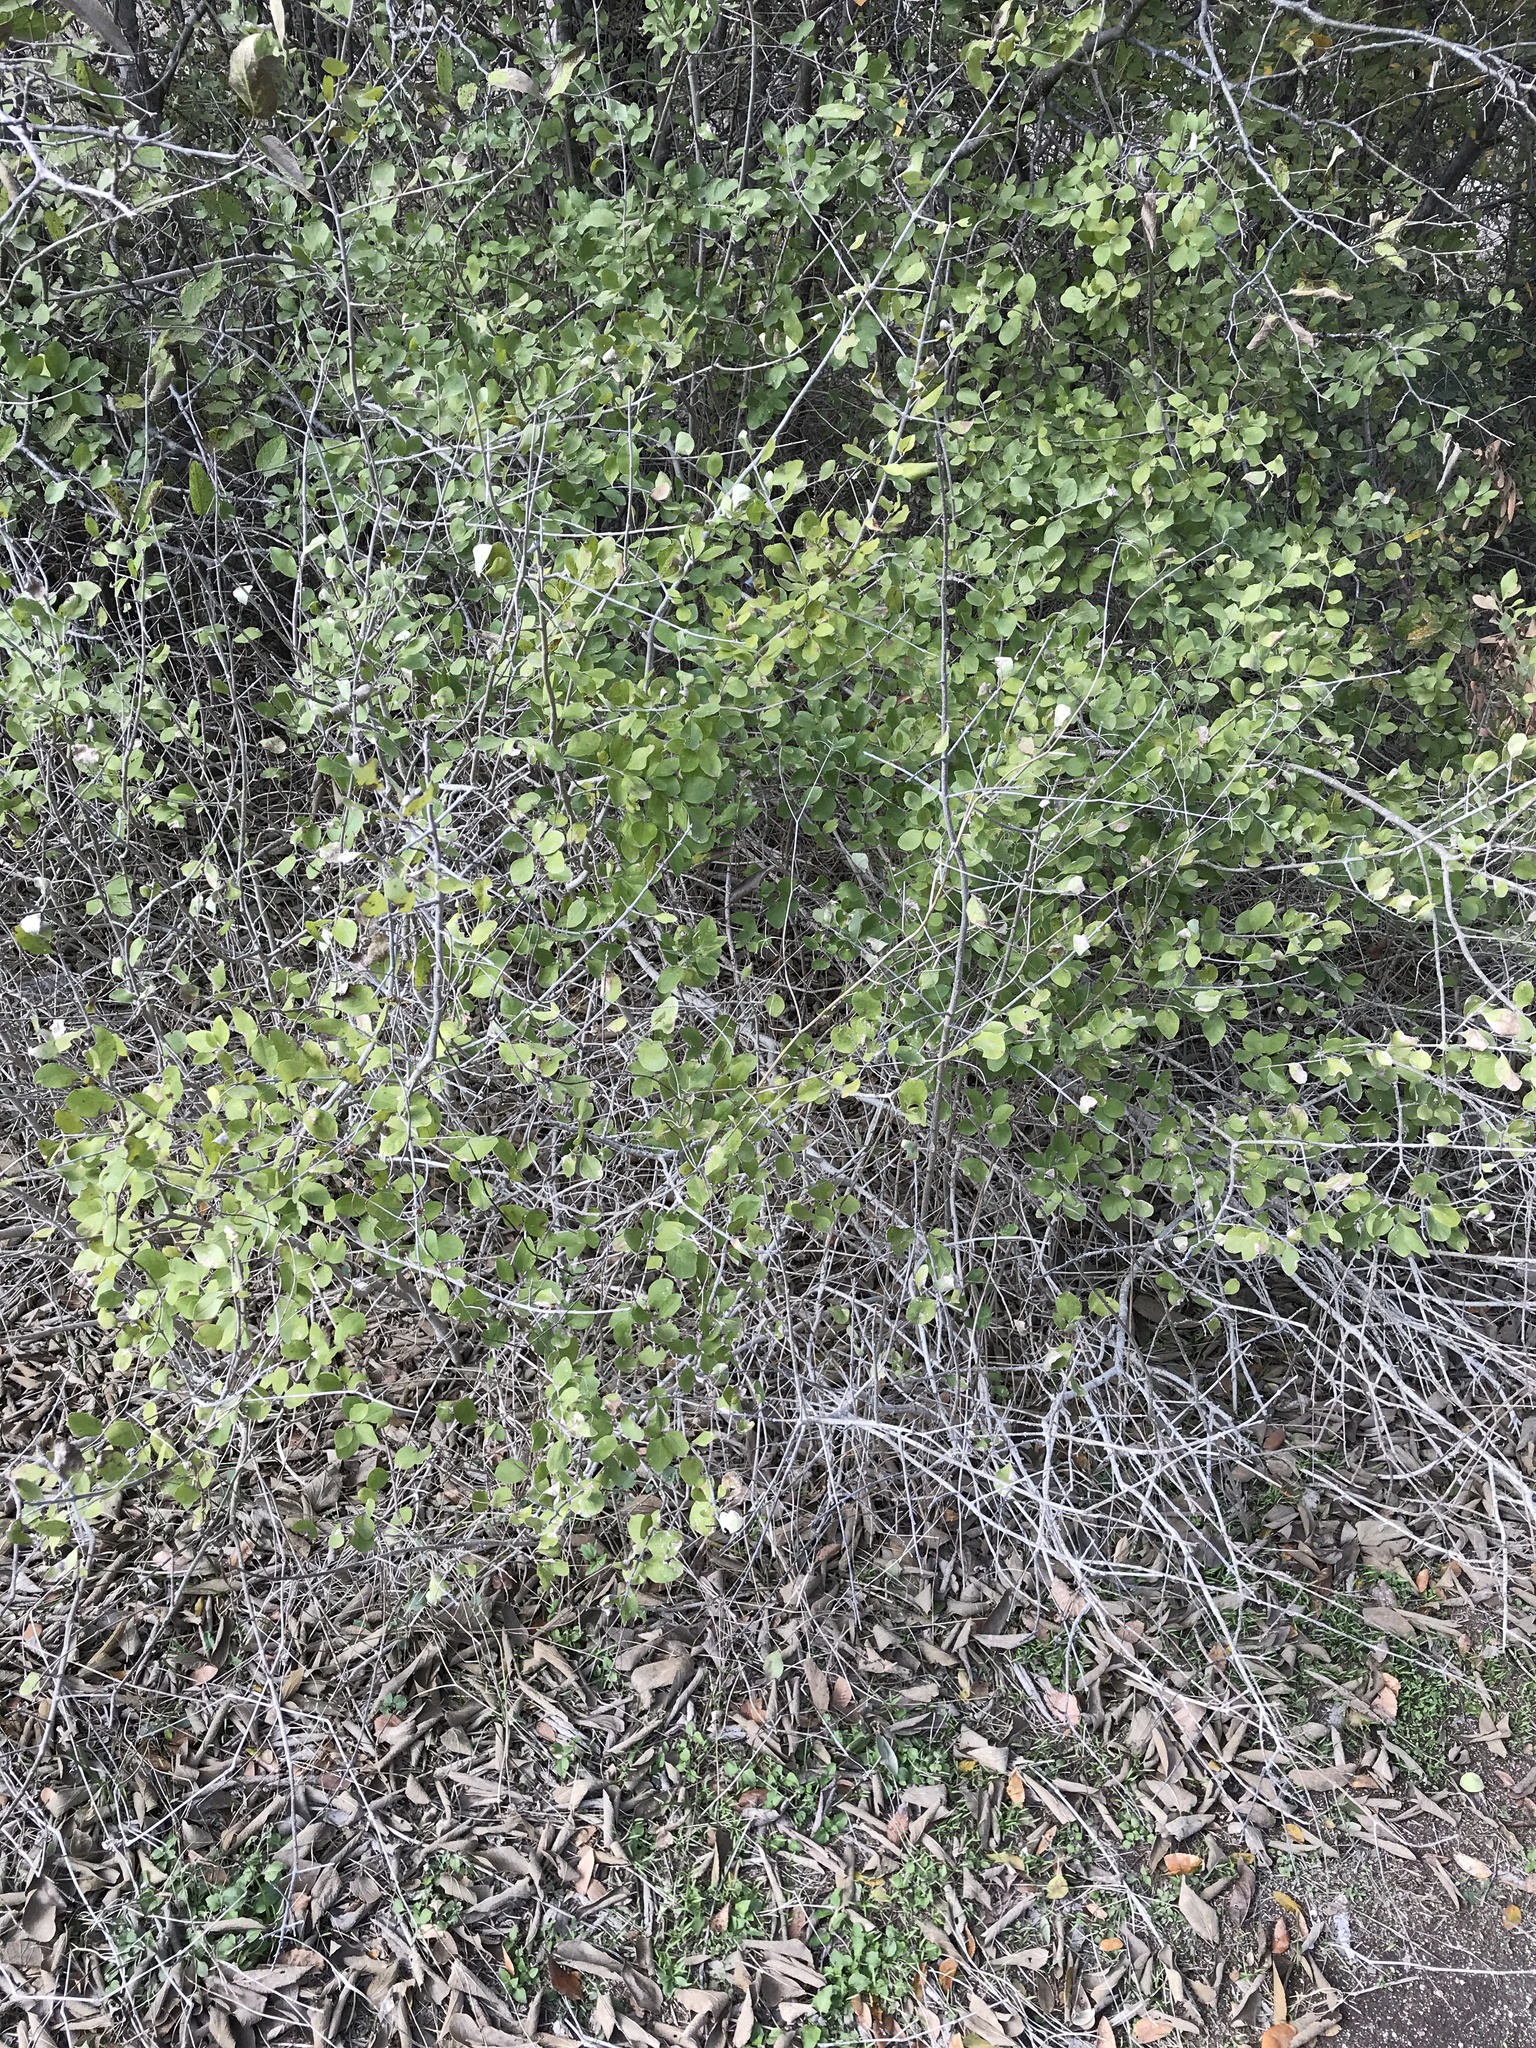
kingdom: Plantae
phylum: Tracheophyta
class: Magnoliopsida
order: Lamiales
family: Oleaceae
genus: Forestiera
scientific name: Forestiera pubescens
